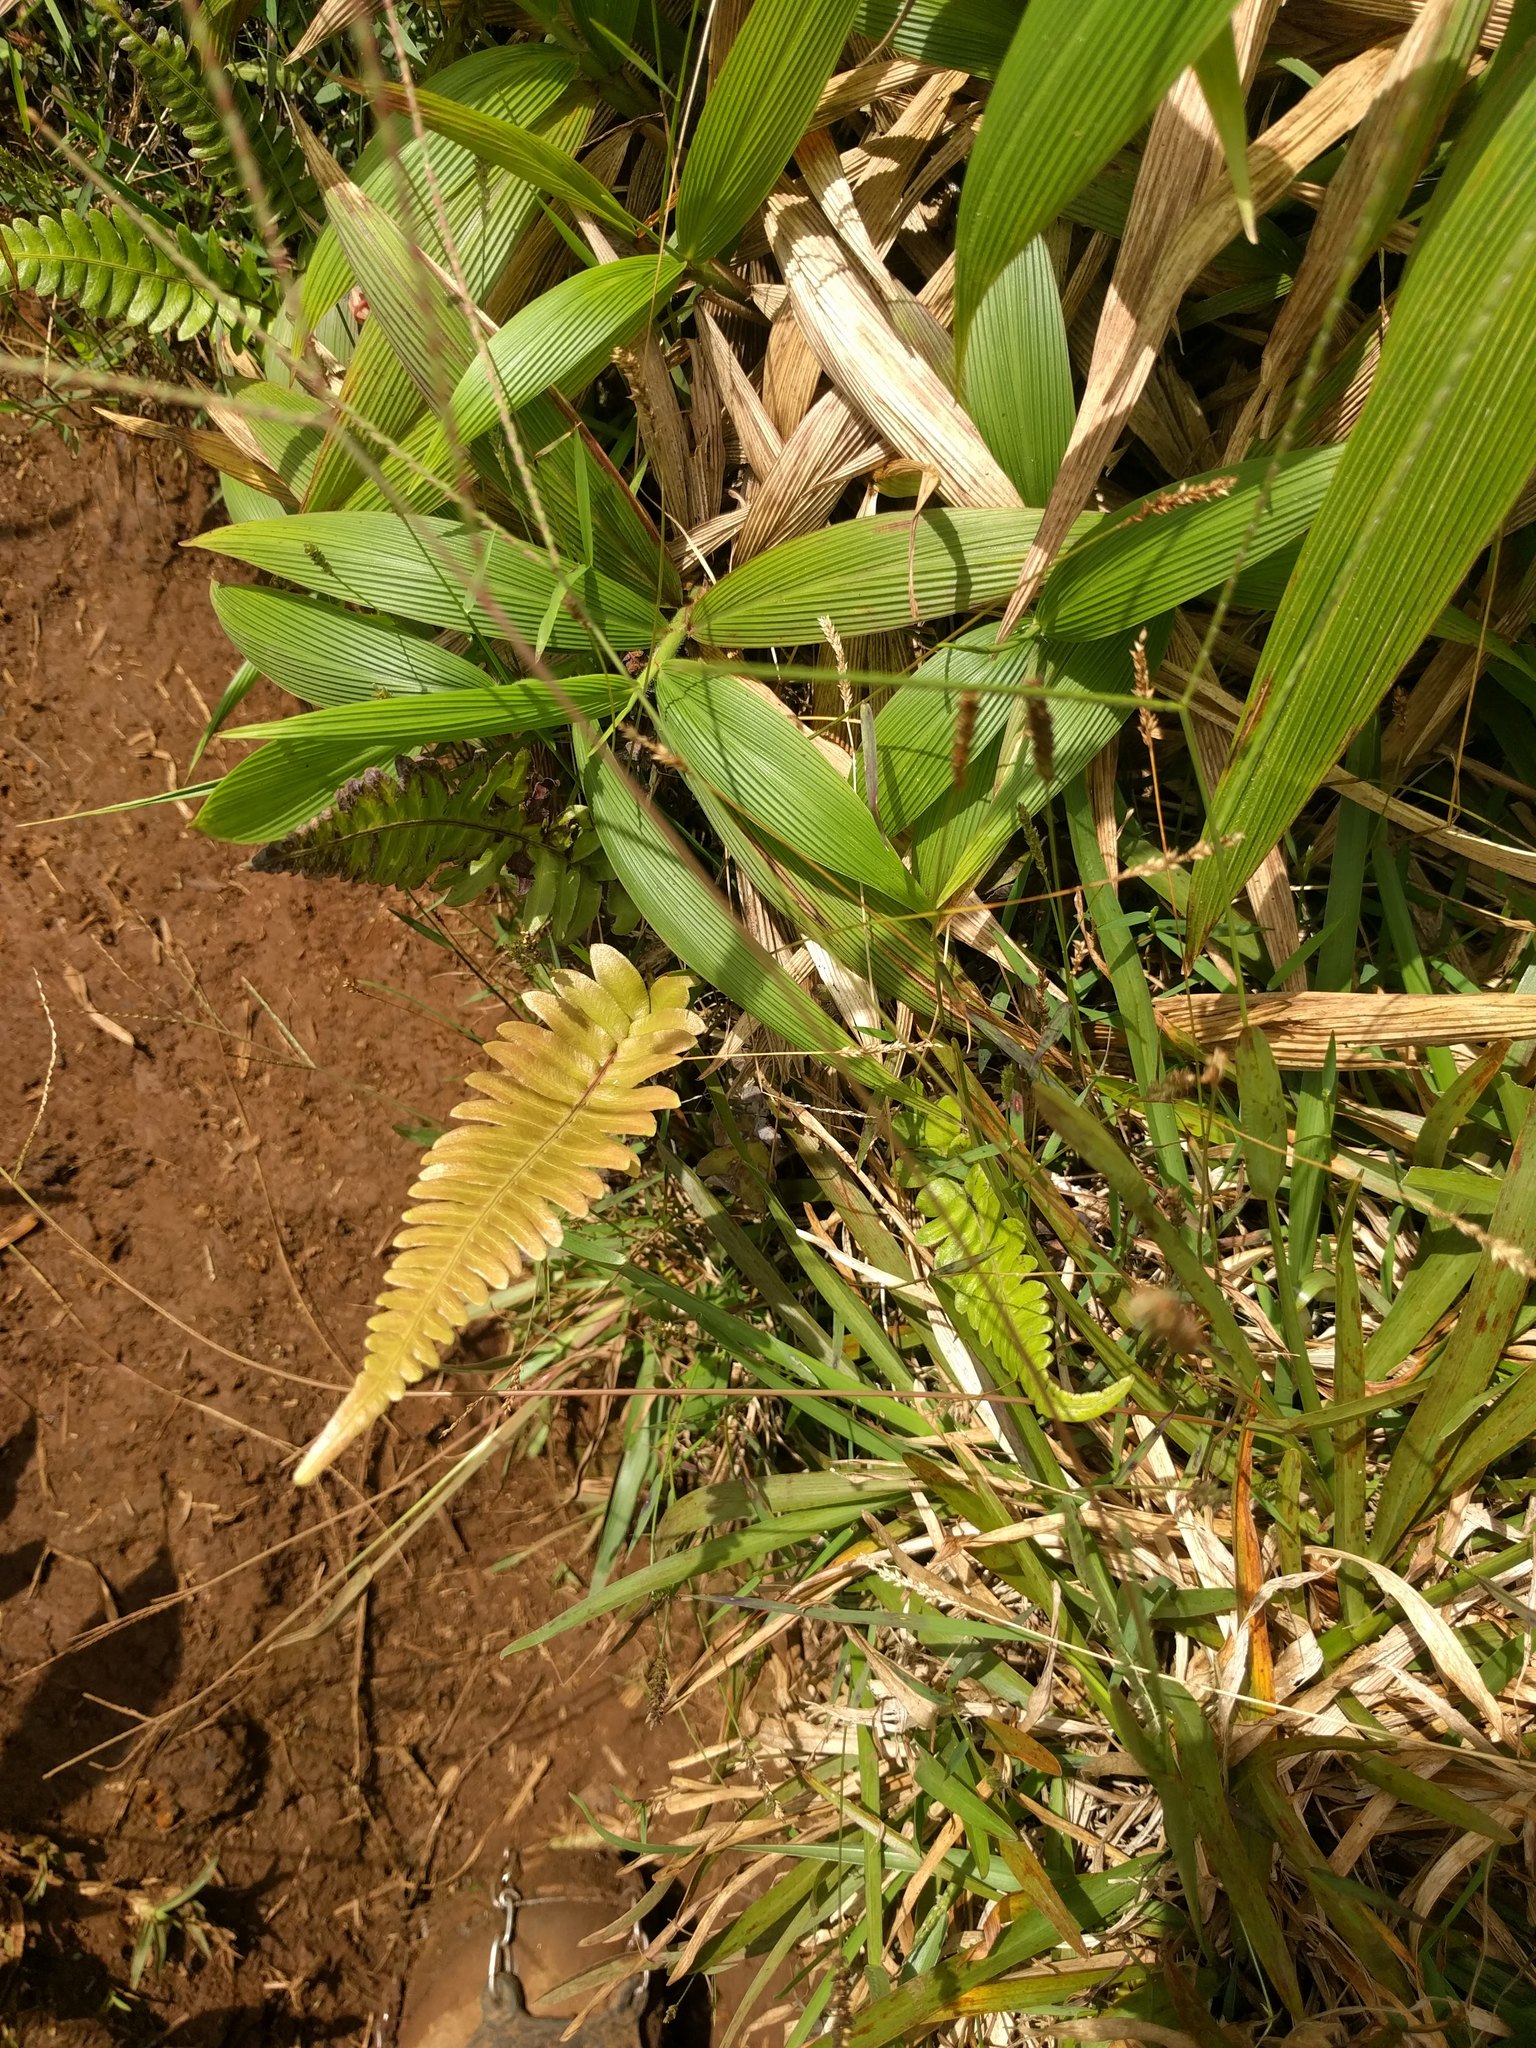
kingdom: Plantae
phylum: Tracheophyta
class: Polypodiopsida
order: Polypodiales
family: Blechnaceae
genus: Blechnum
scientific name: Blechnum appendiculatum
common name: Palm fern
